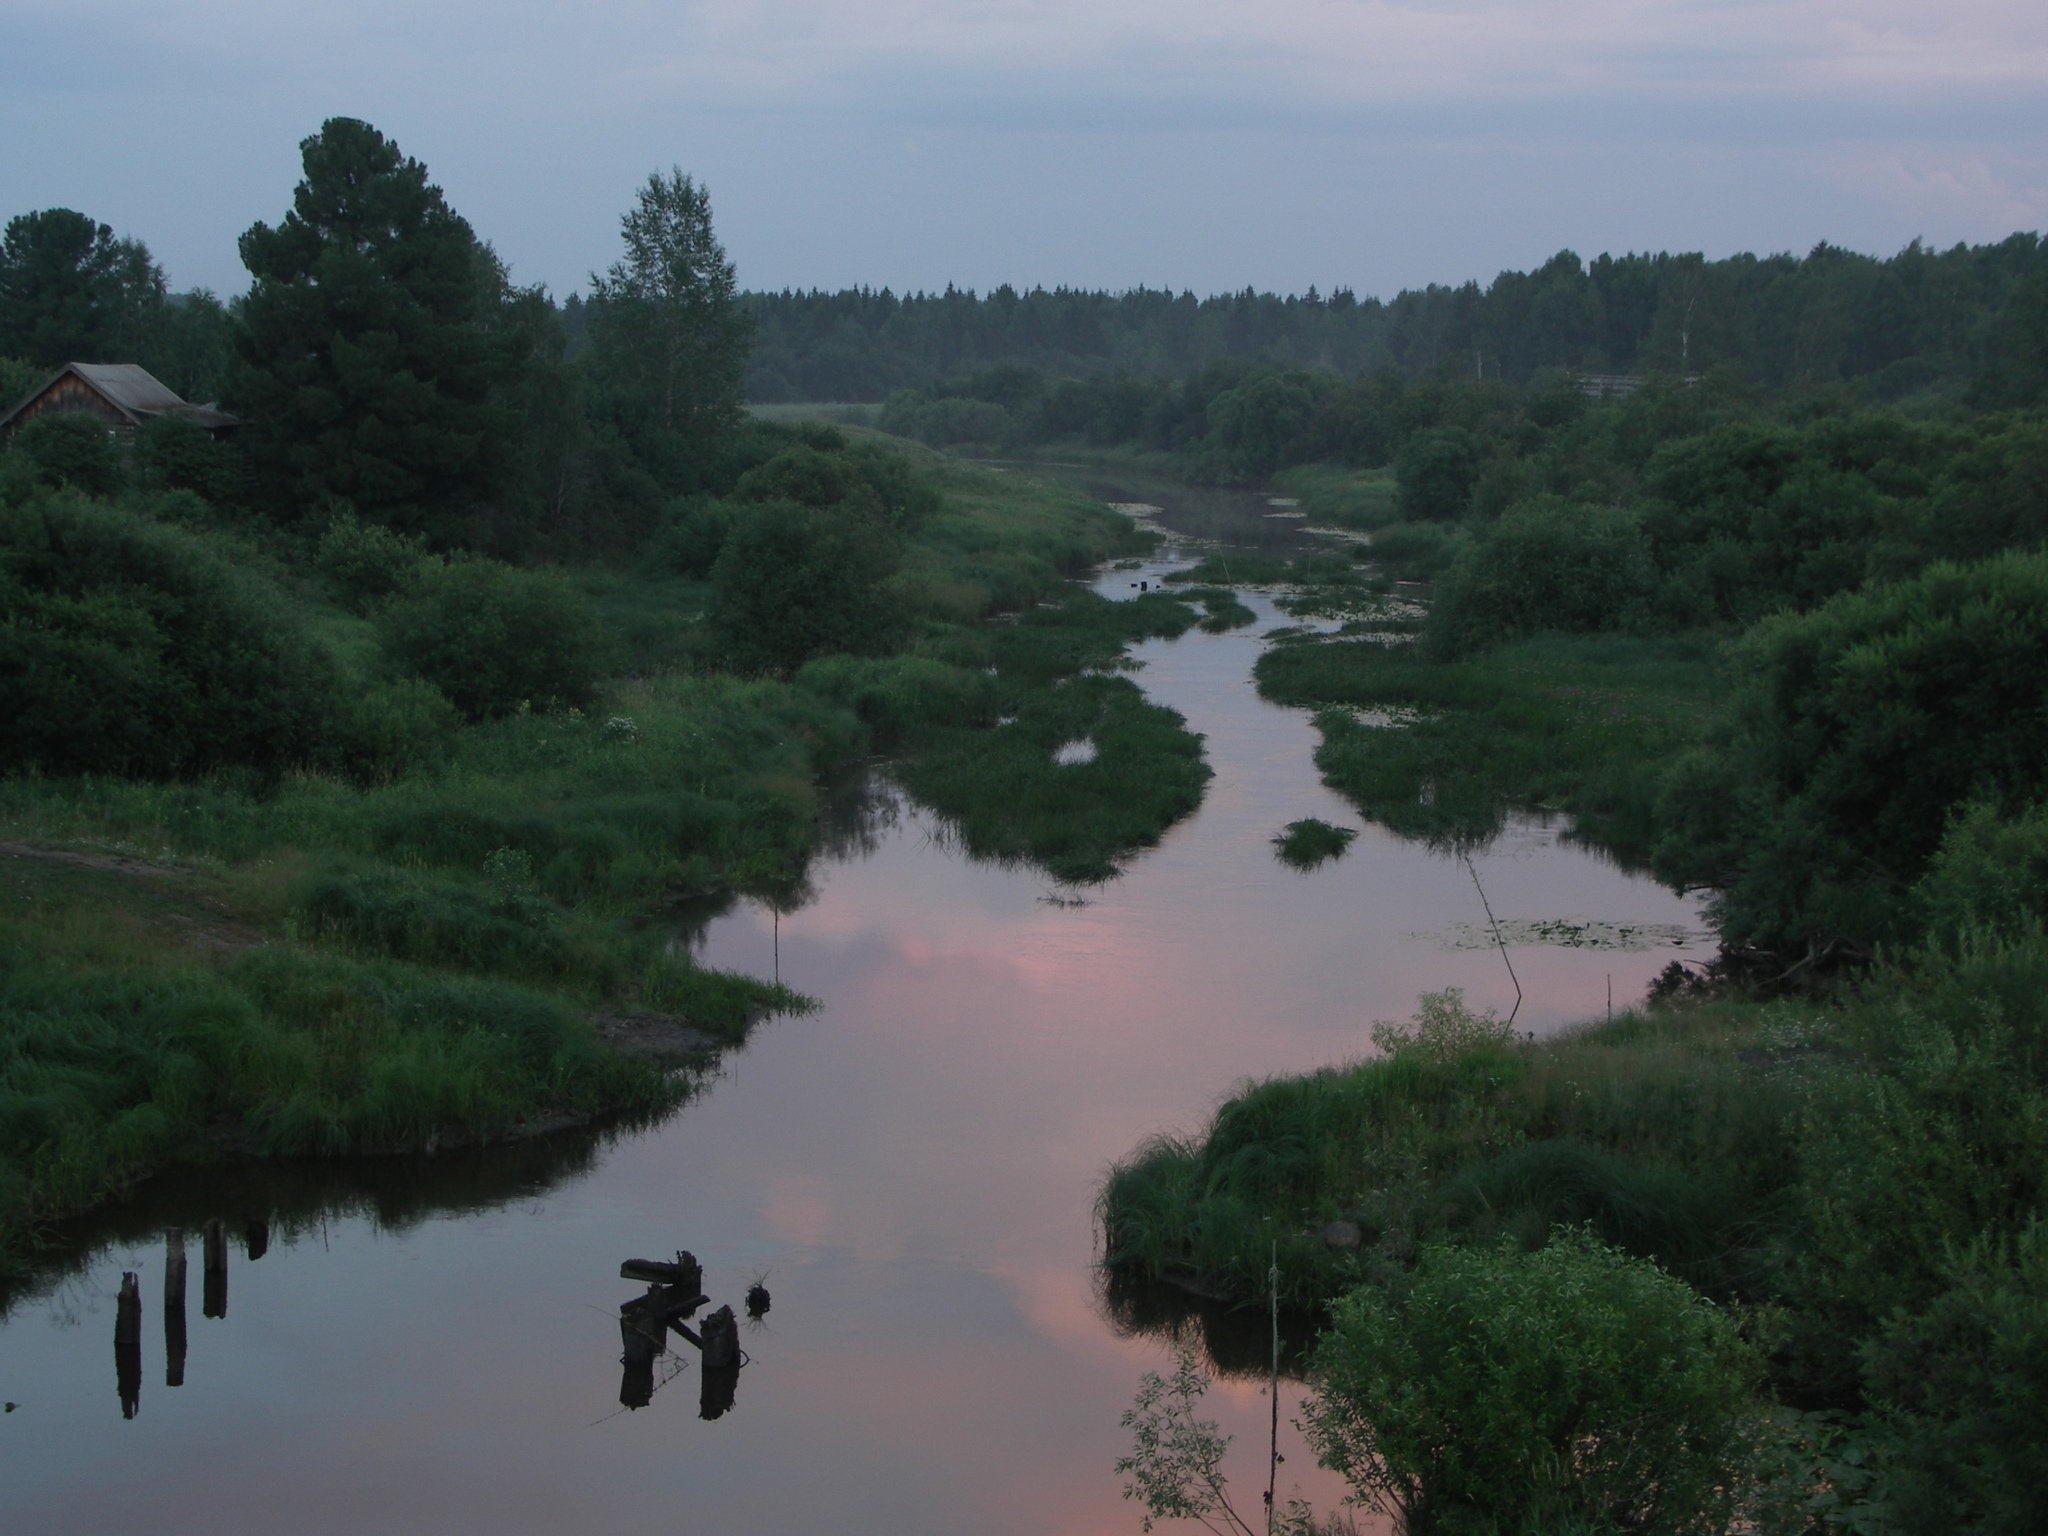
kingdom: Plantae
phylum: Tracheophyta
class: Pinopsida
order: Pinales
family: Pinaceae
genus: Pinus
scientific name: Pinus sibirica
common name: Siberian pine
